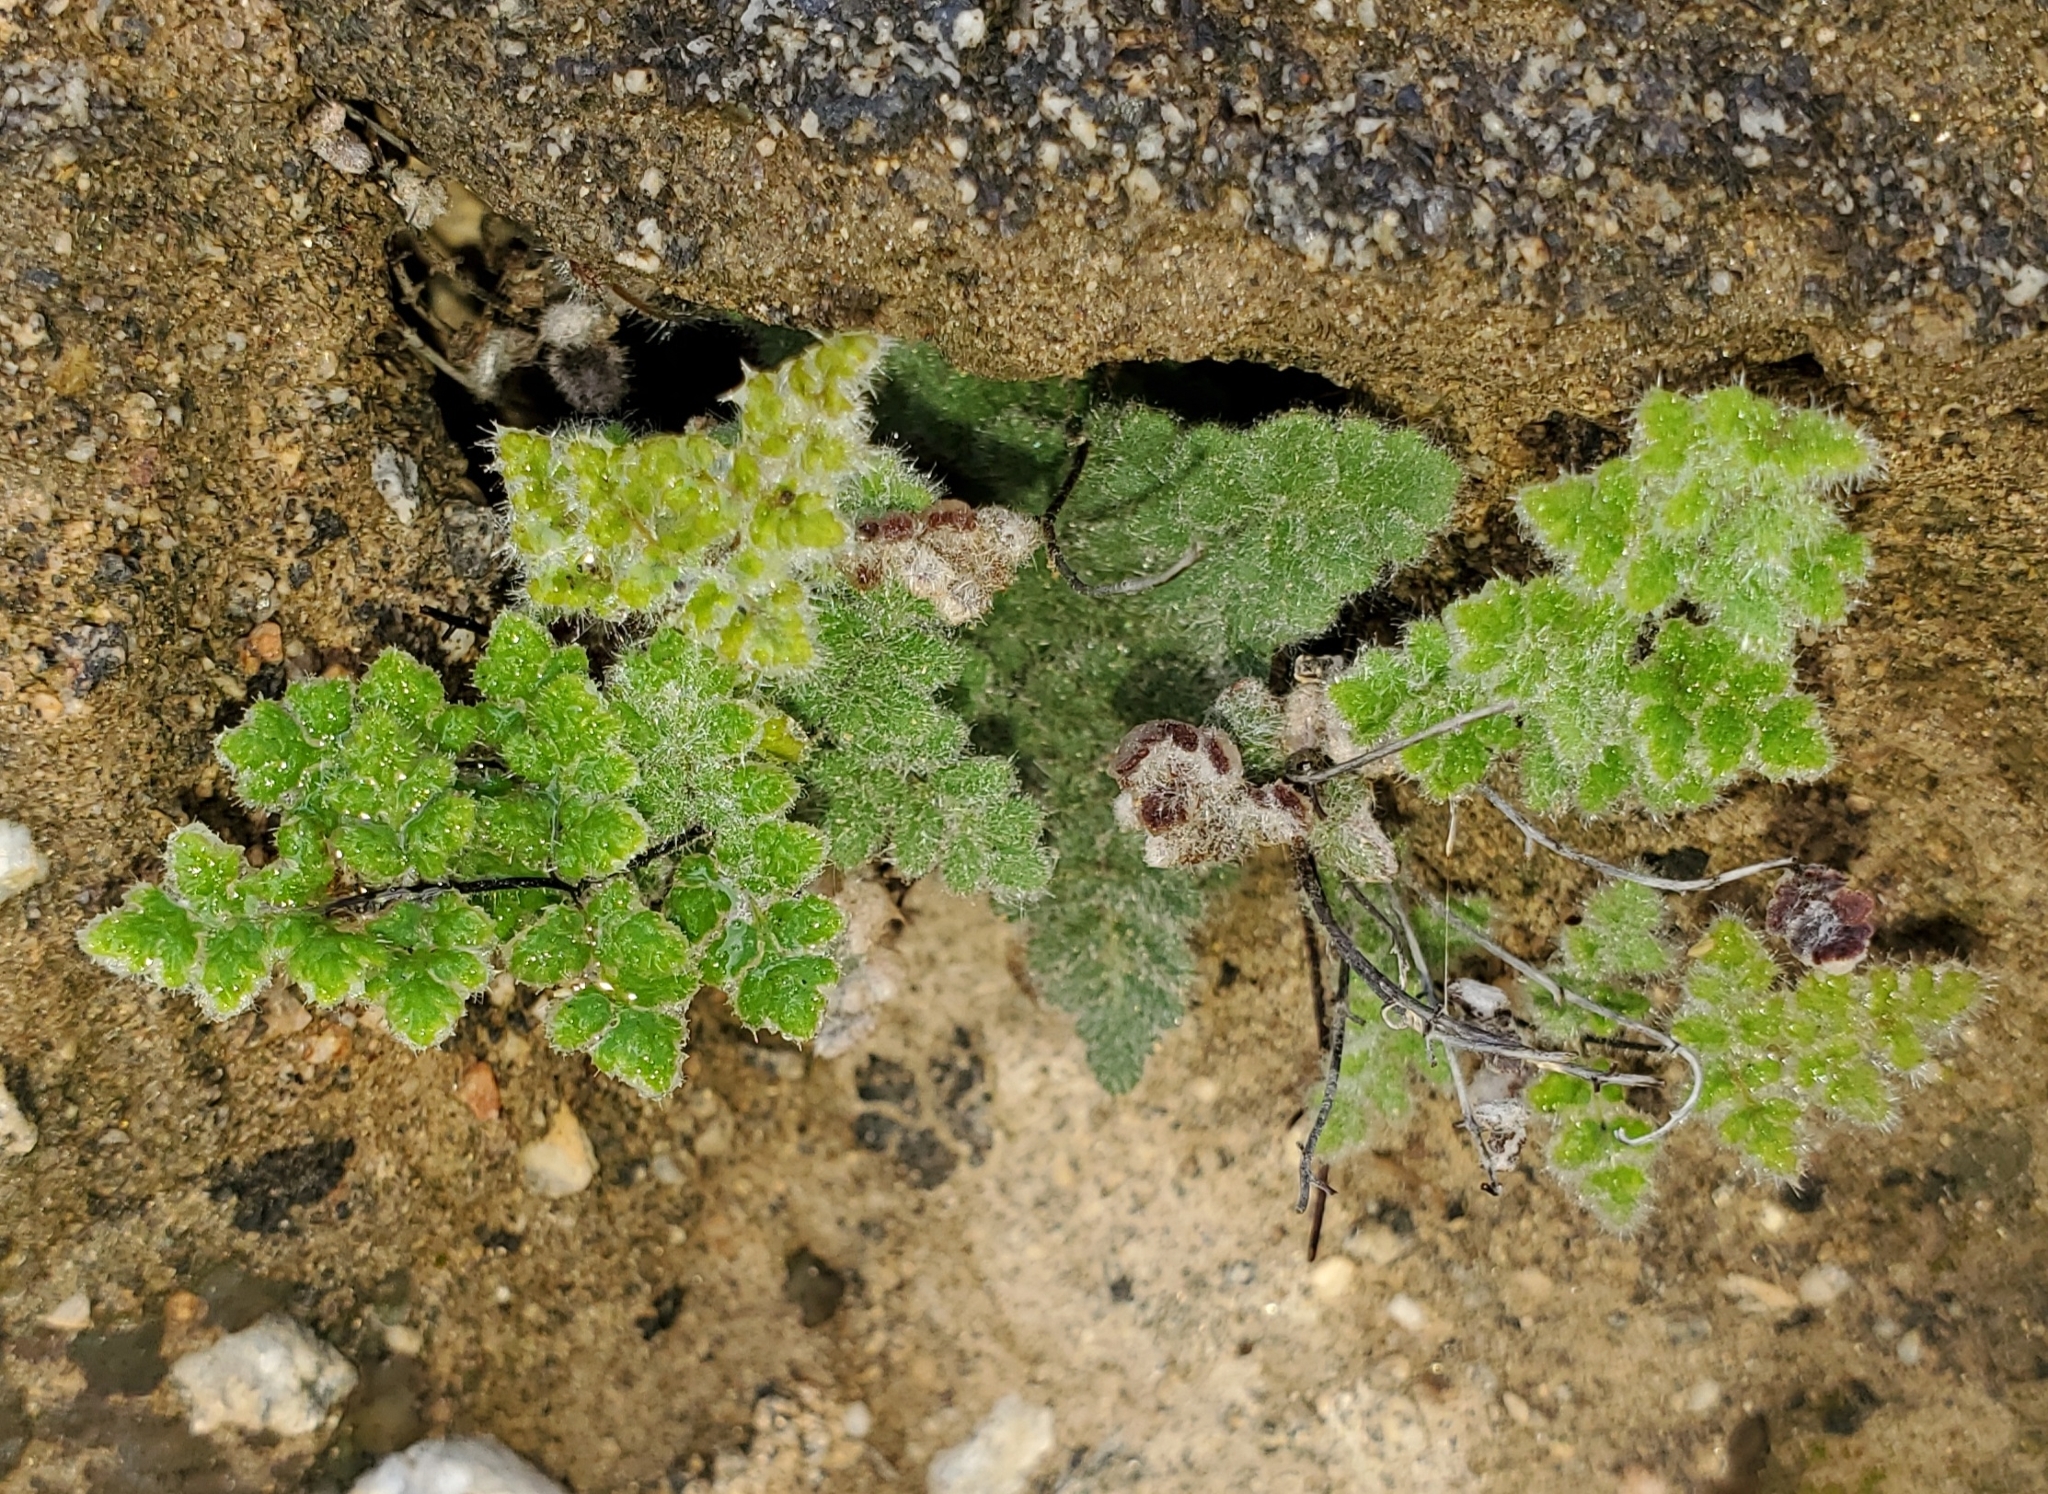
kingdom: Plantae
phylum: Tracheophyta
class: Polypodiopsida
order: Polypodiales
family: Pteridaceae
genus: Myriopteris
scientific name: Myriopteris parryi
